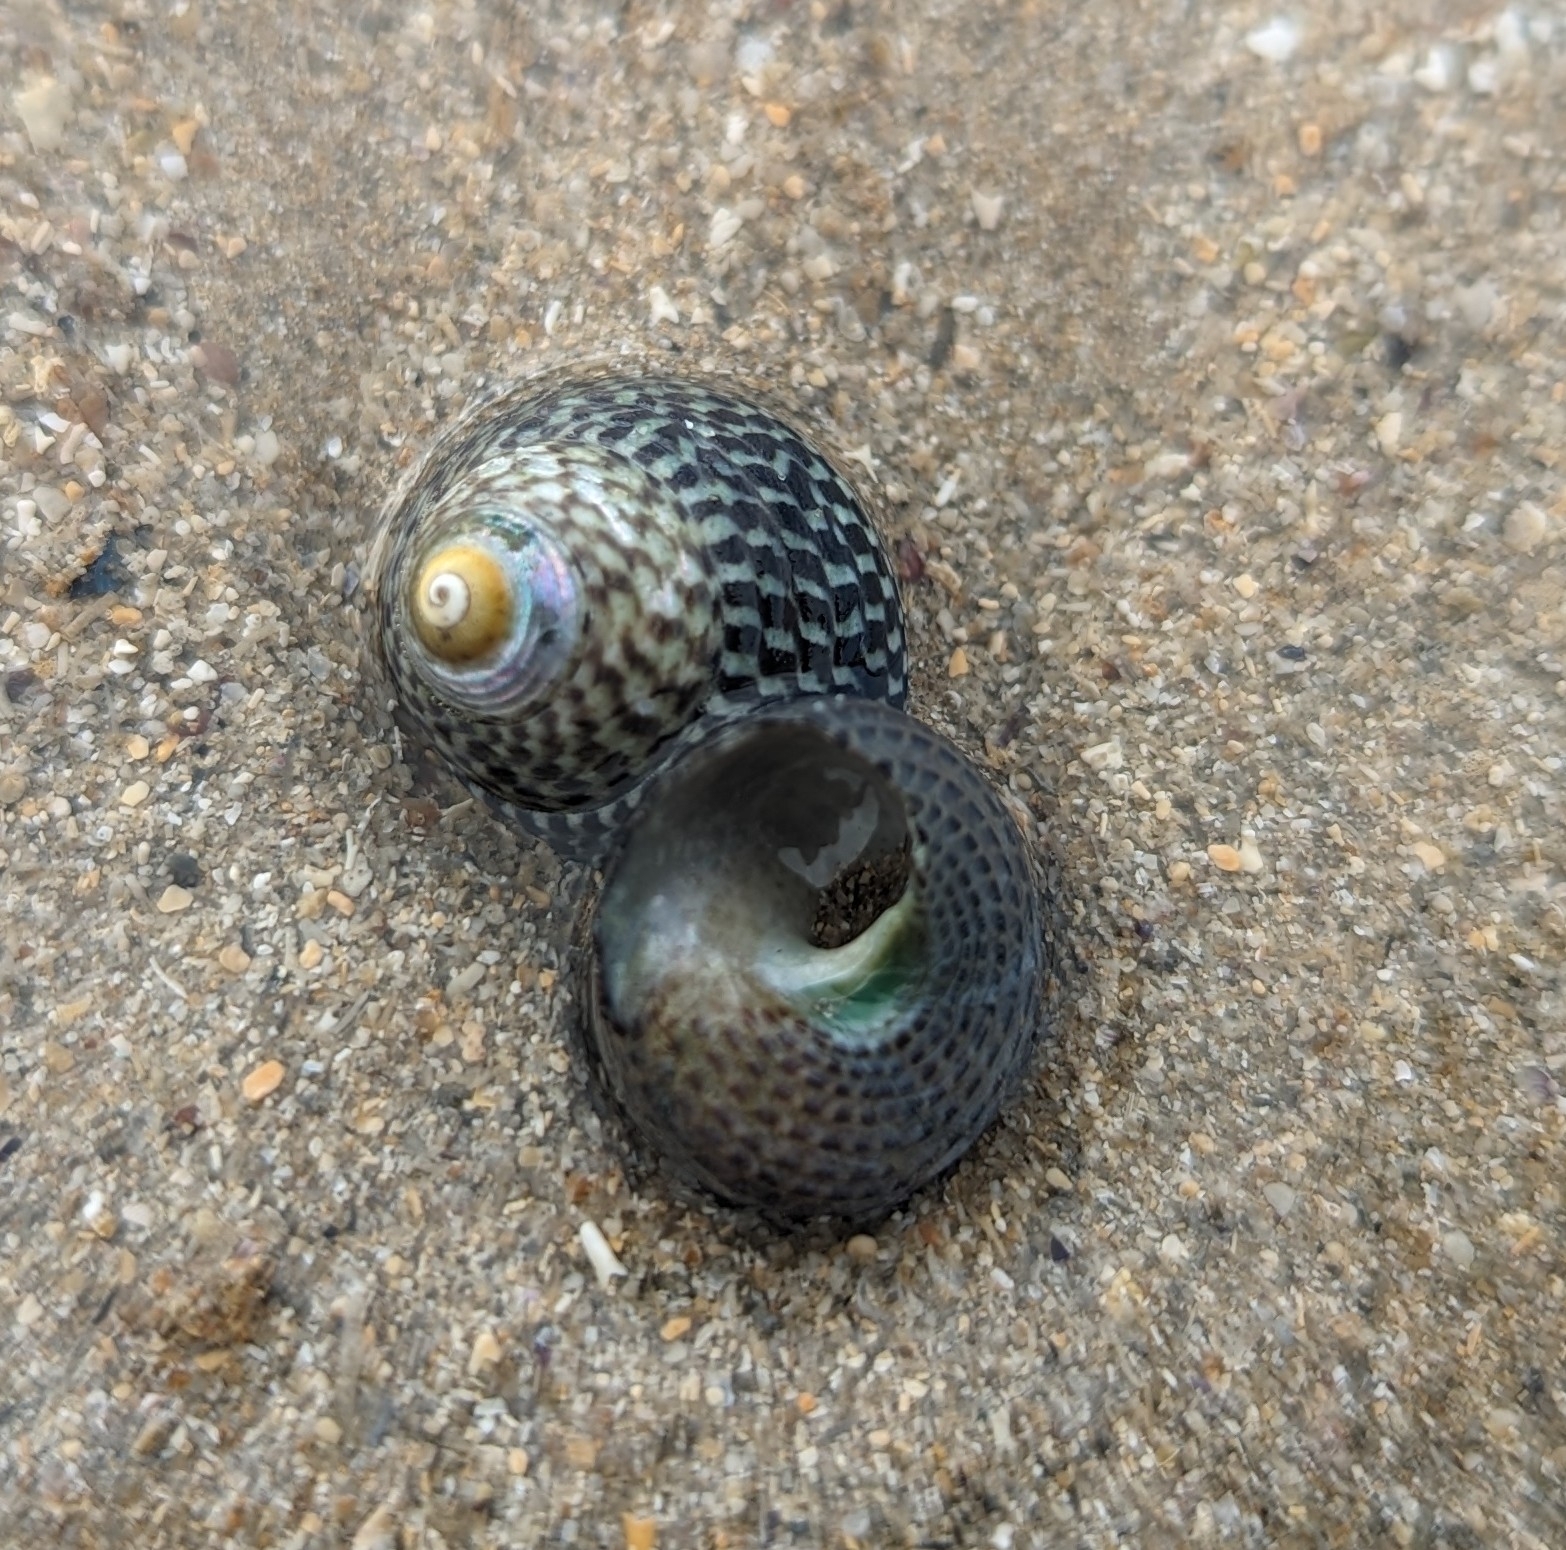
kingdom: Animalia
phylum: Mollusca
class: Gastropoda
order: Trochida
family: Trochidae
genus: Chlorodiloma
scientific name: Chlorodiloma adelaidae
